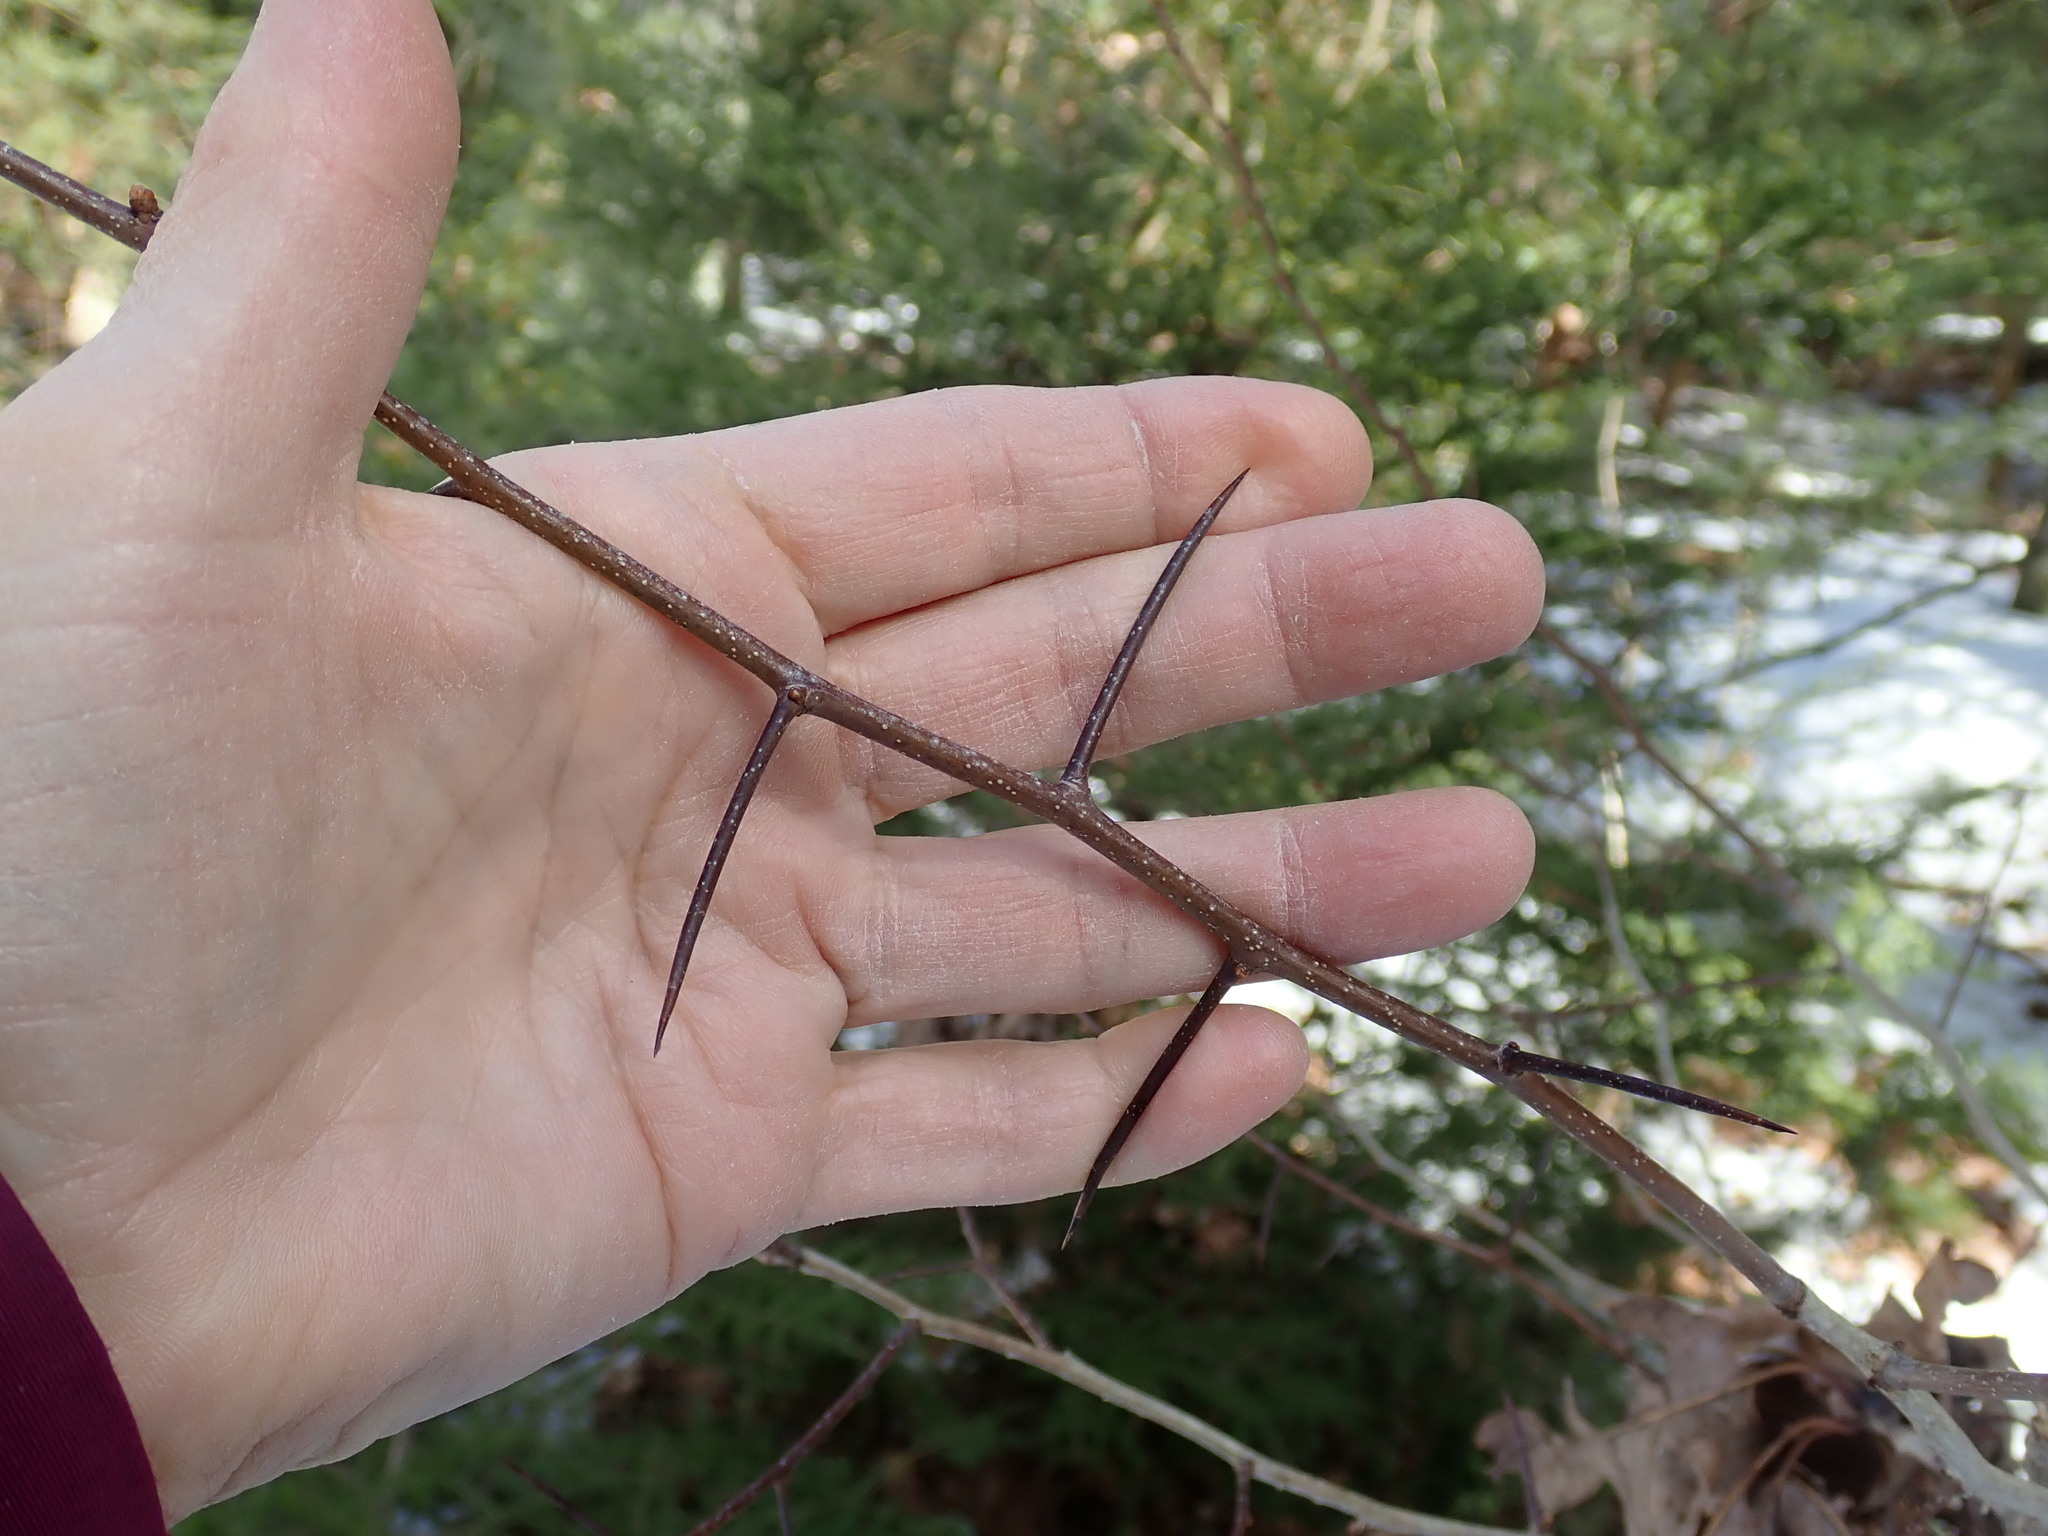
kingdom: Plantae
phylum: Tracheophyta
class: Magnoliopsida
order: Rosales
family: Rosaceae
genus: Crataegus
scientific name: Crataegus
